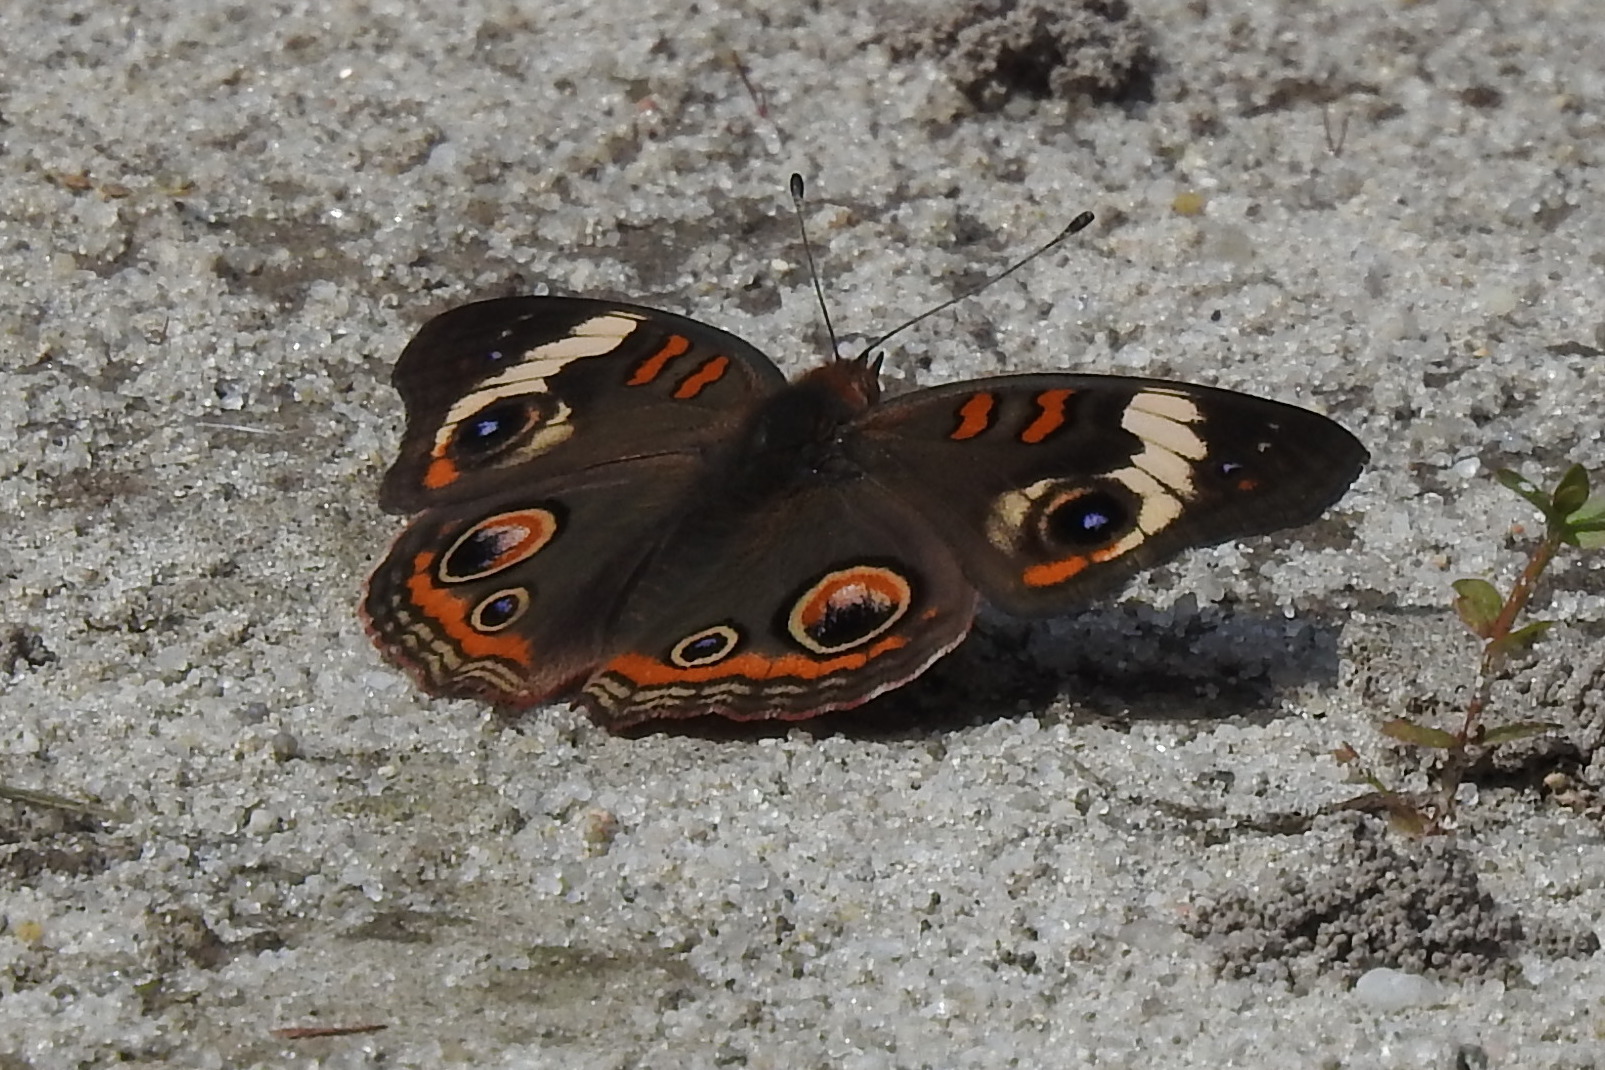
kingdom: Animalia
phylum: Arthropoda
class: Insecta
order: Lepidoptera
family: Nymphalidae
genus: Junonia
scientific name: Junonia coenia
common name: Common buckeye
